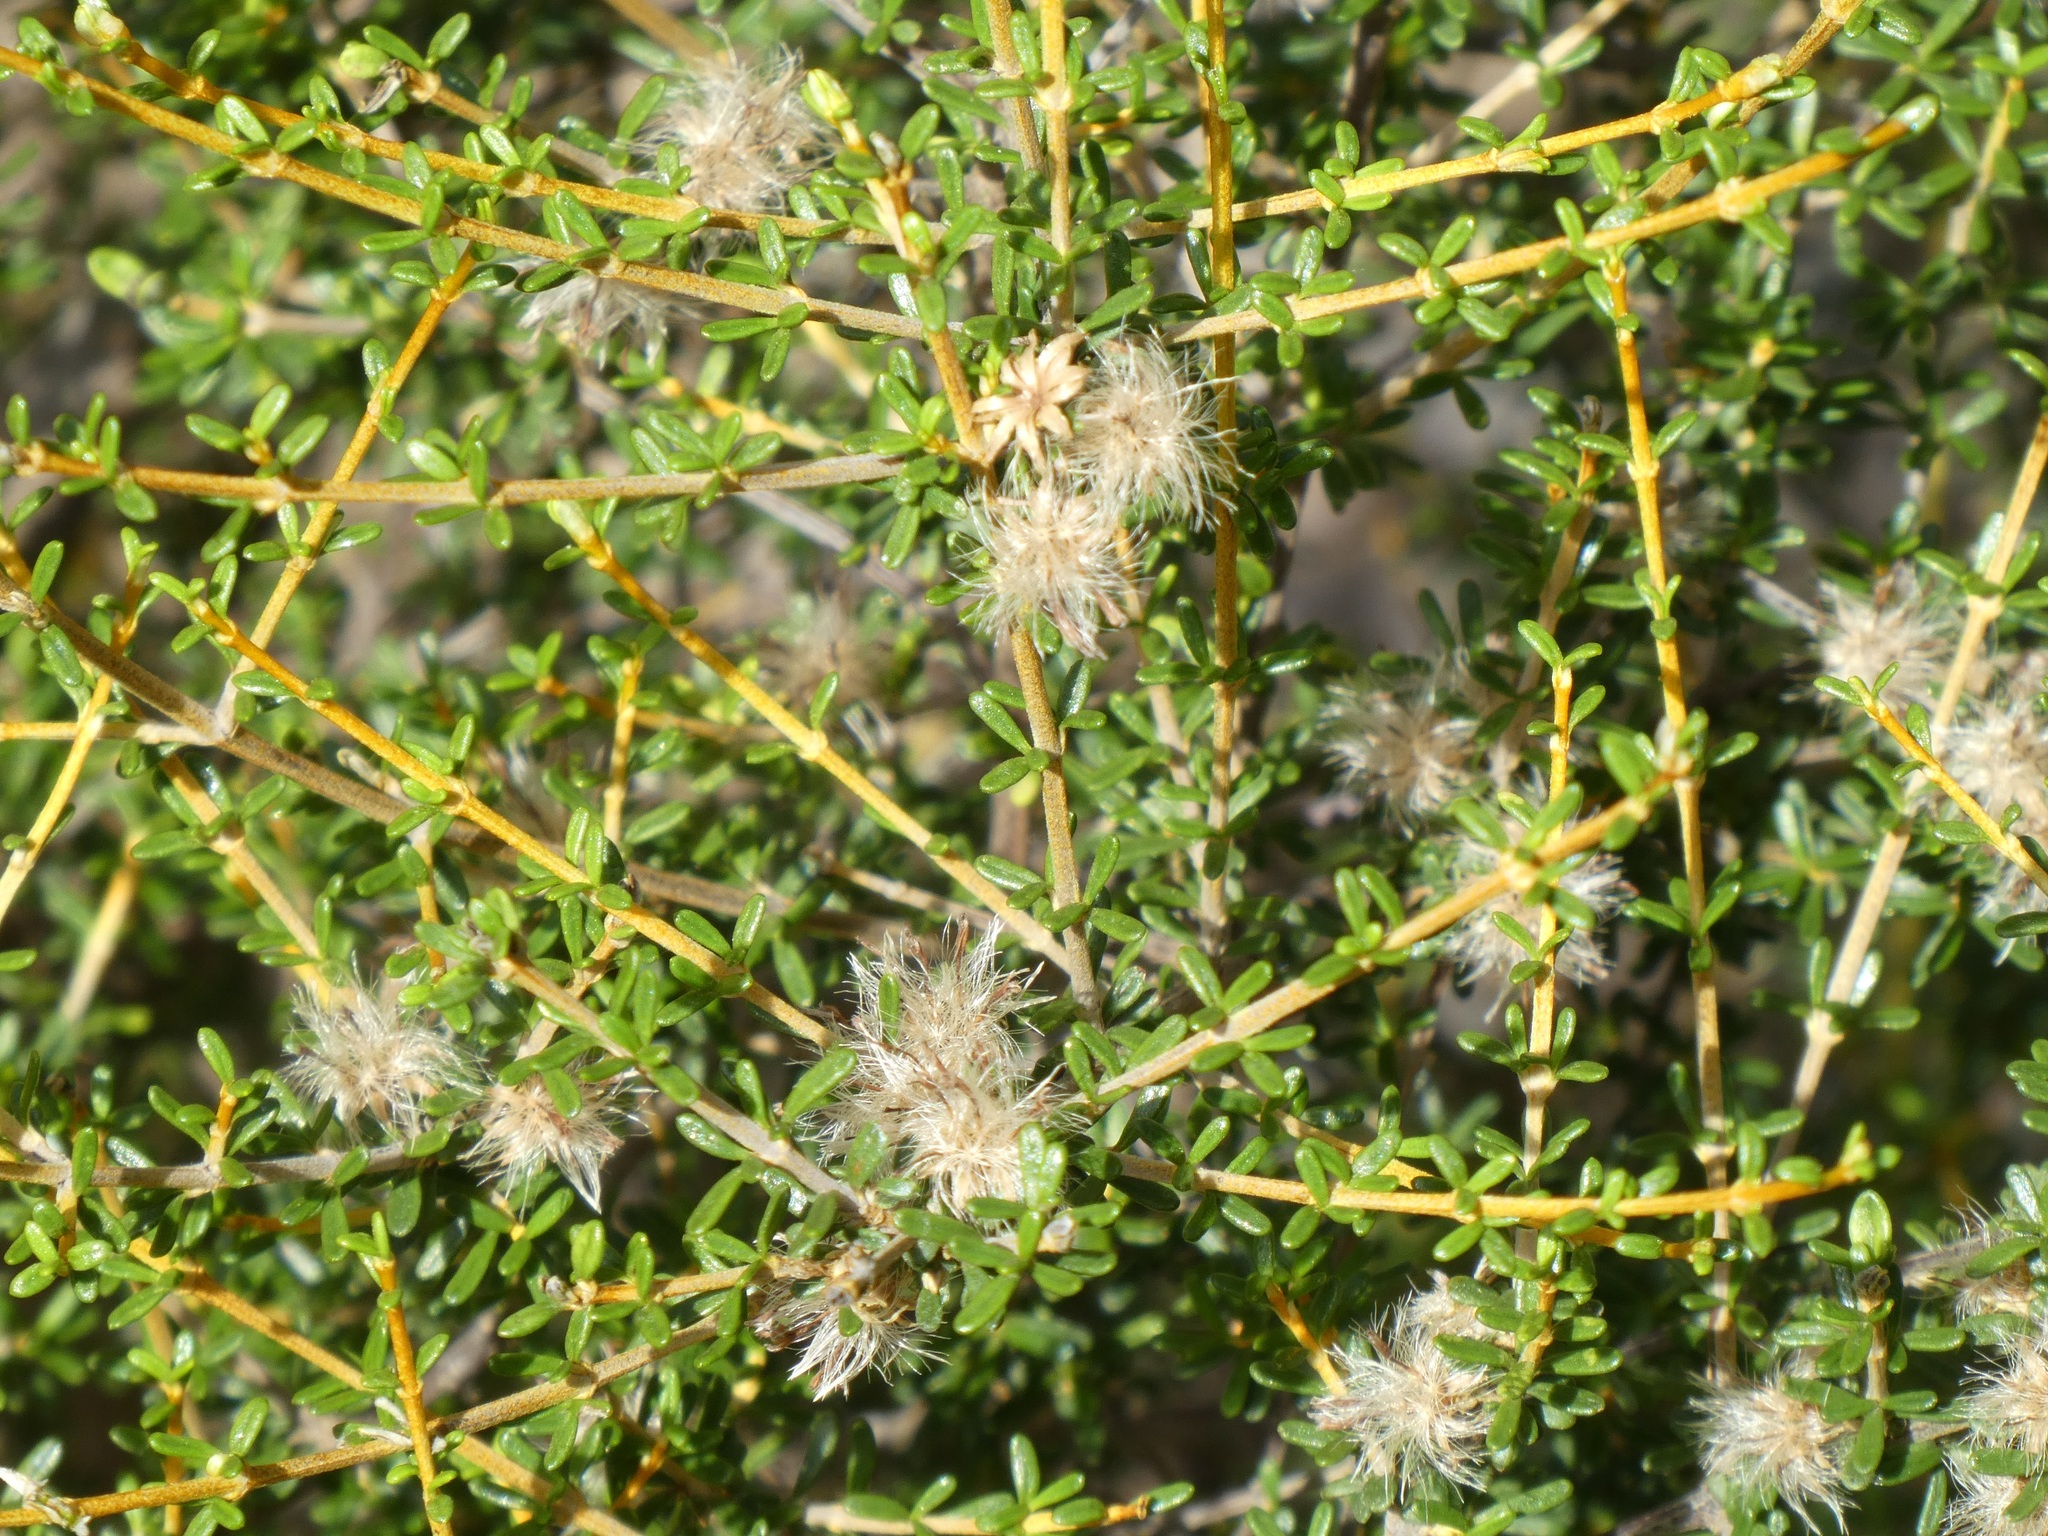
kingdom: Plantae
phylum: Tracheophyta
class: Magnoliopsida
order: Asterales
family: Asteraceae
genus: Olearia
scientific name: Olearia solandri
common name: Coastal daisybush
